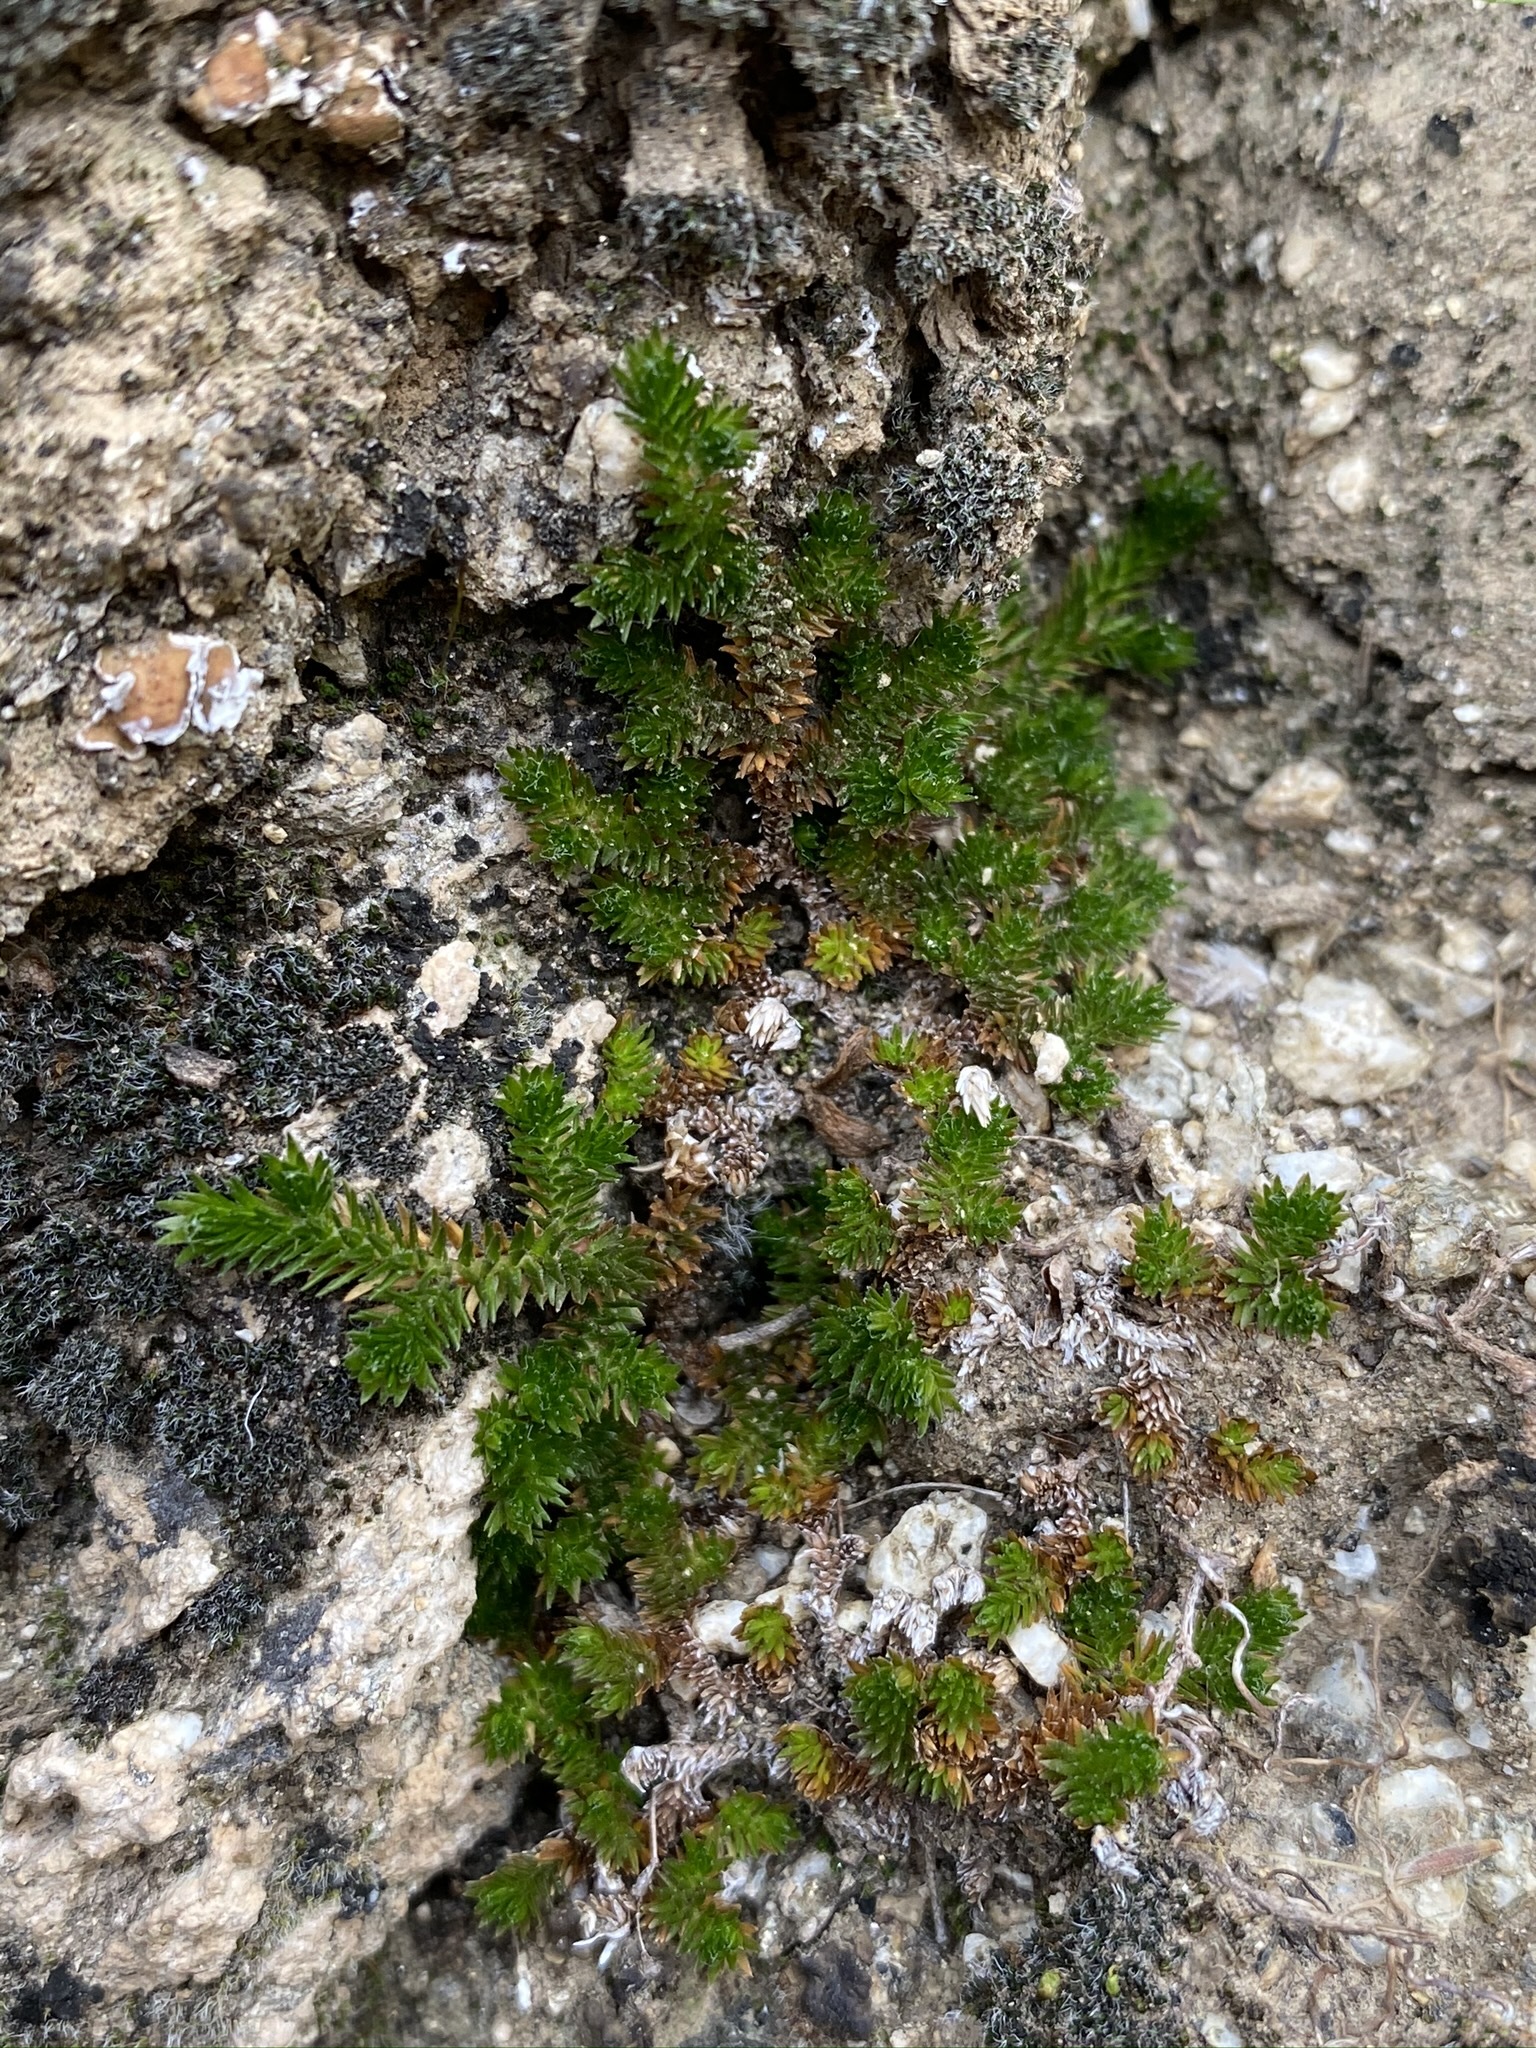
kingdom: Plantae
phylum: Tracheophyta
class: Lycopodiopsida
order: Selaginellales
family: Selaginellaceae
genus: Selaginella
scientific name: Selaginella eremophila
